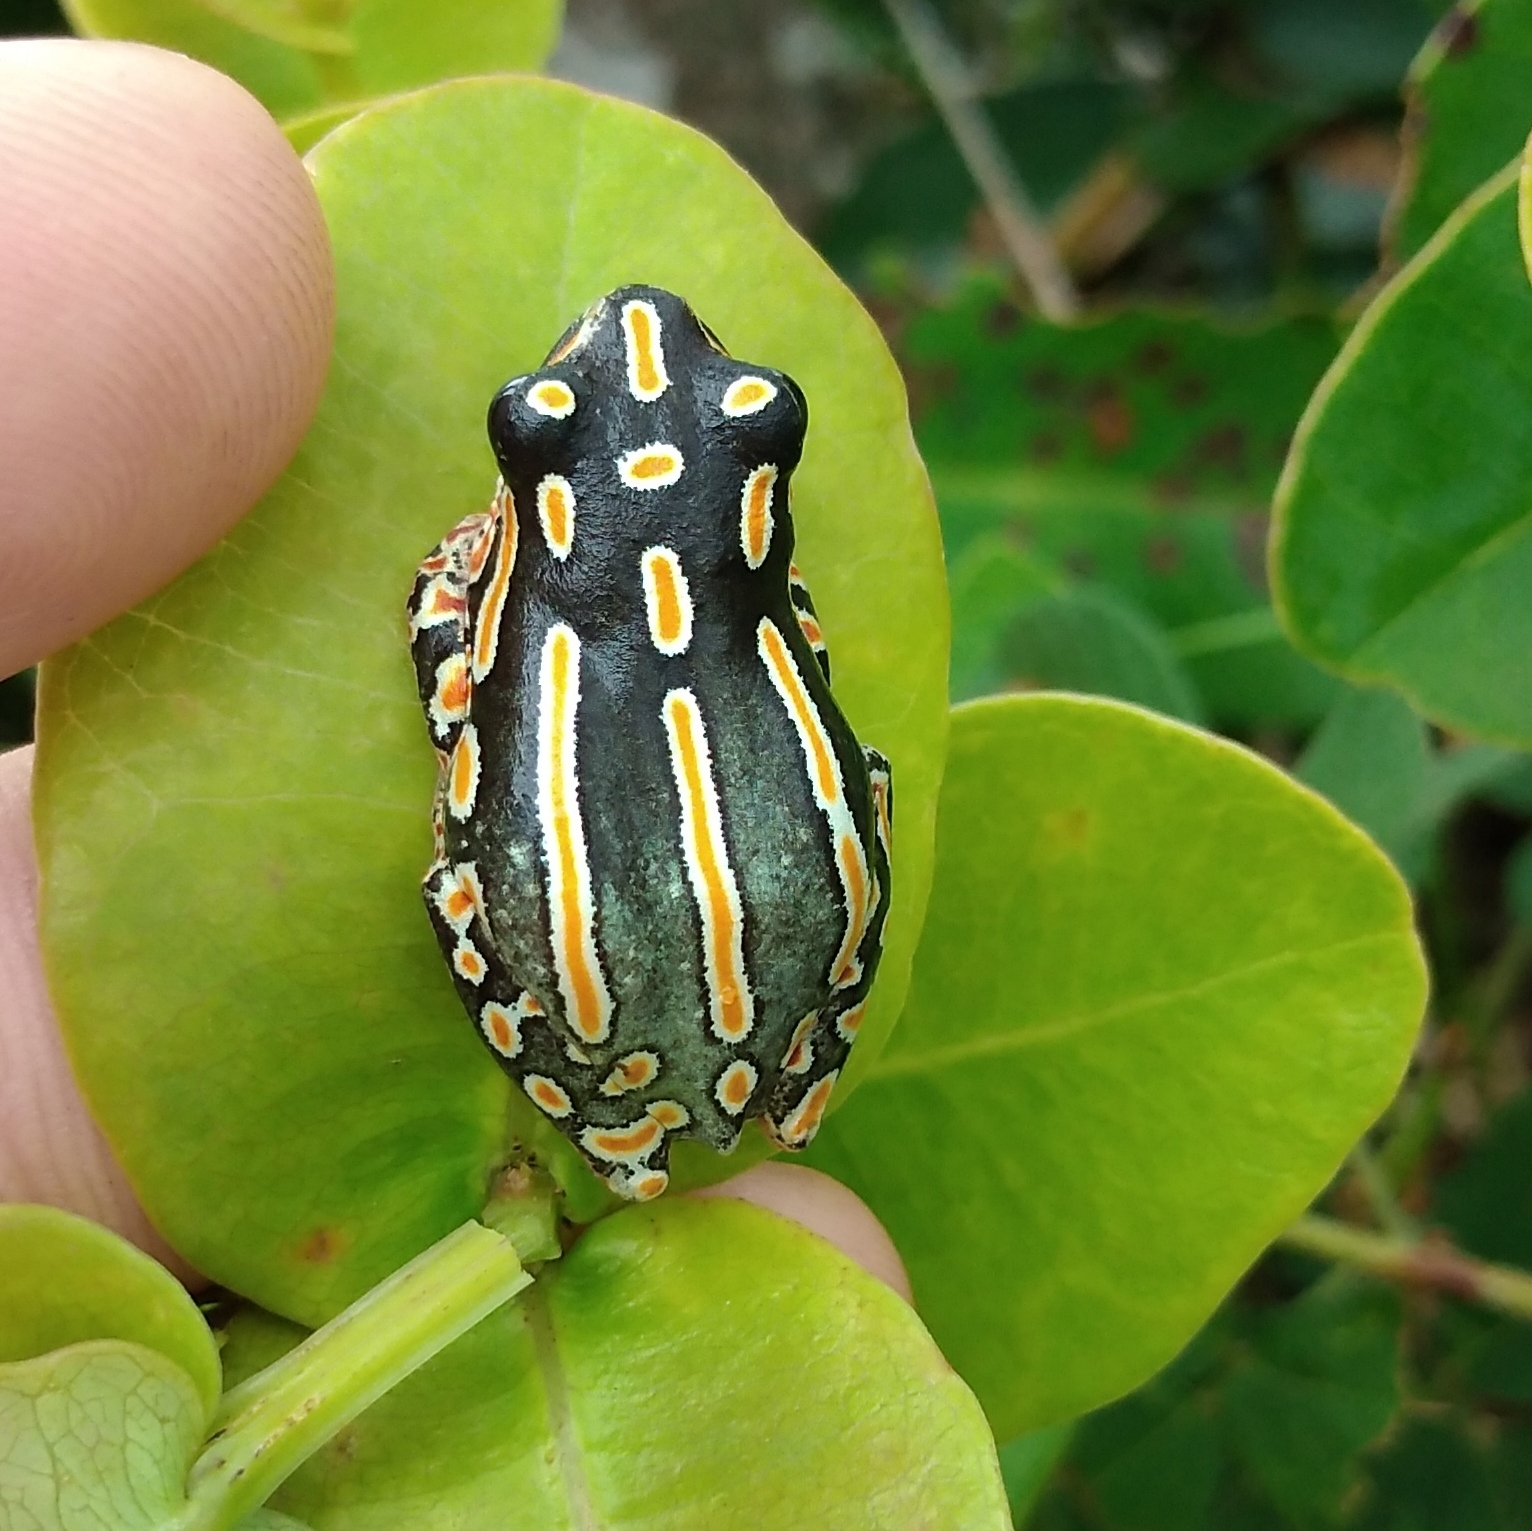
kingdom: Animalia
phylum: Chordata
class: Amphibia
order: Anura
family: Hyperoliidae
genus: Hyperolius
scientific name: Hyperolius marmoratus
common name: Painted reed frog
